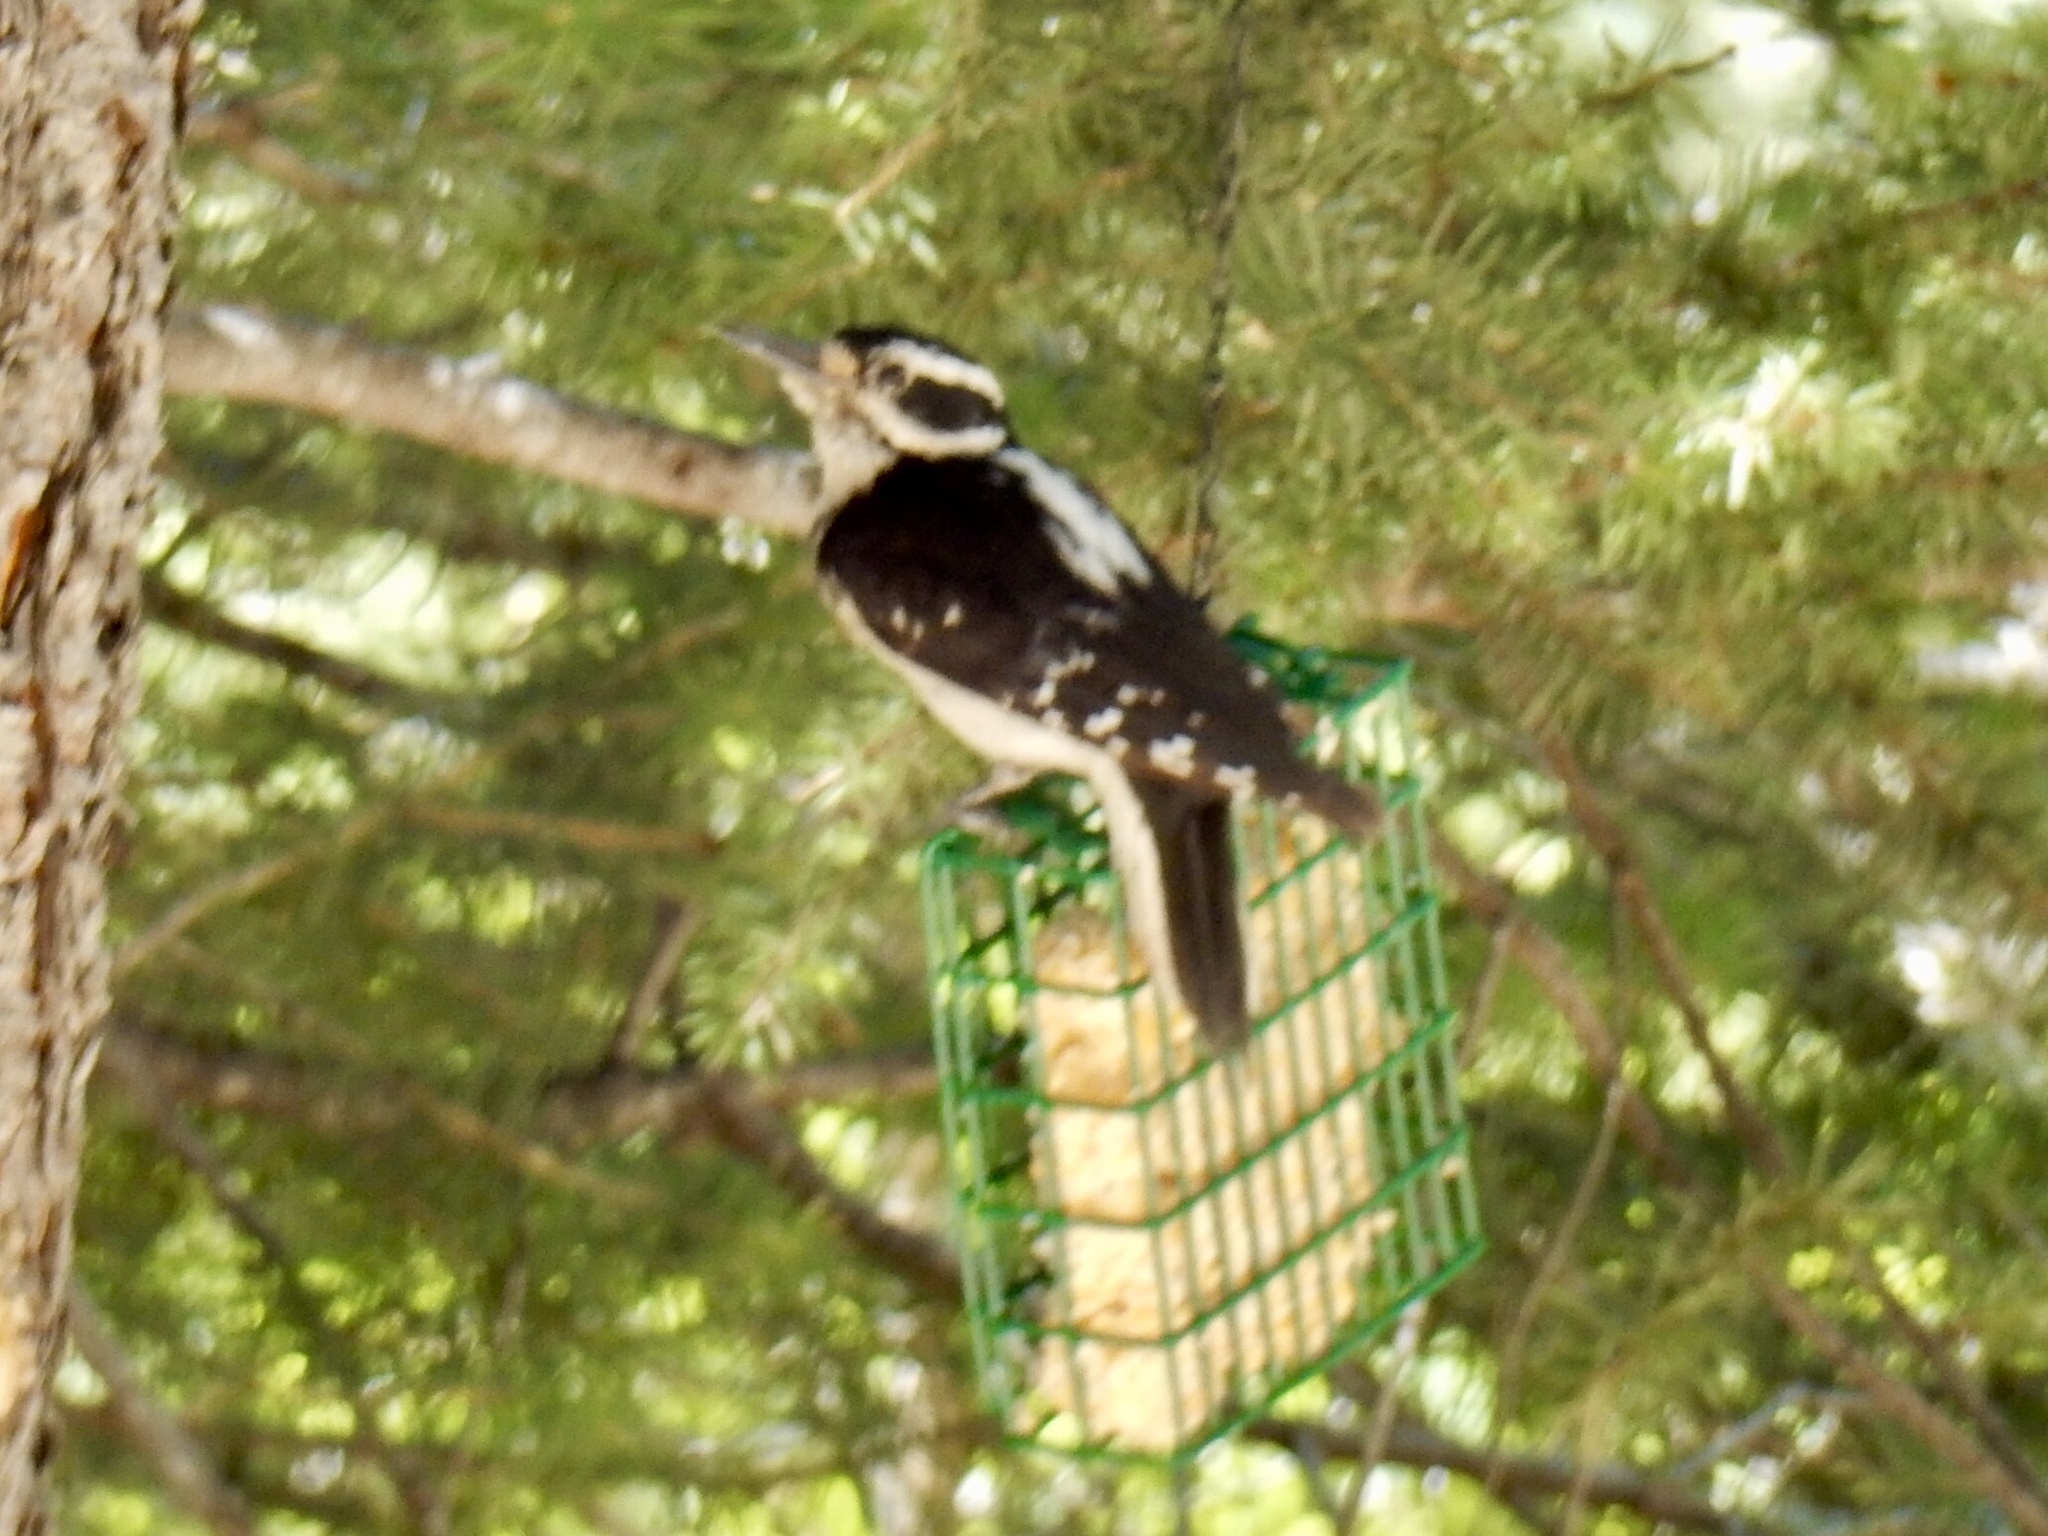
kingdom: Animalia
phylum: Chordata
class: Aves
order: Piciformes
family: Picidae
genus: Leuconotopicus
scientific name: Leuconotopicus villosus
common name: Hairy woodpecker
